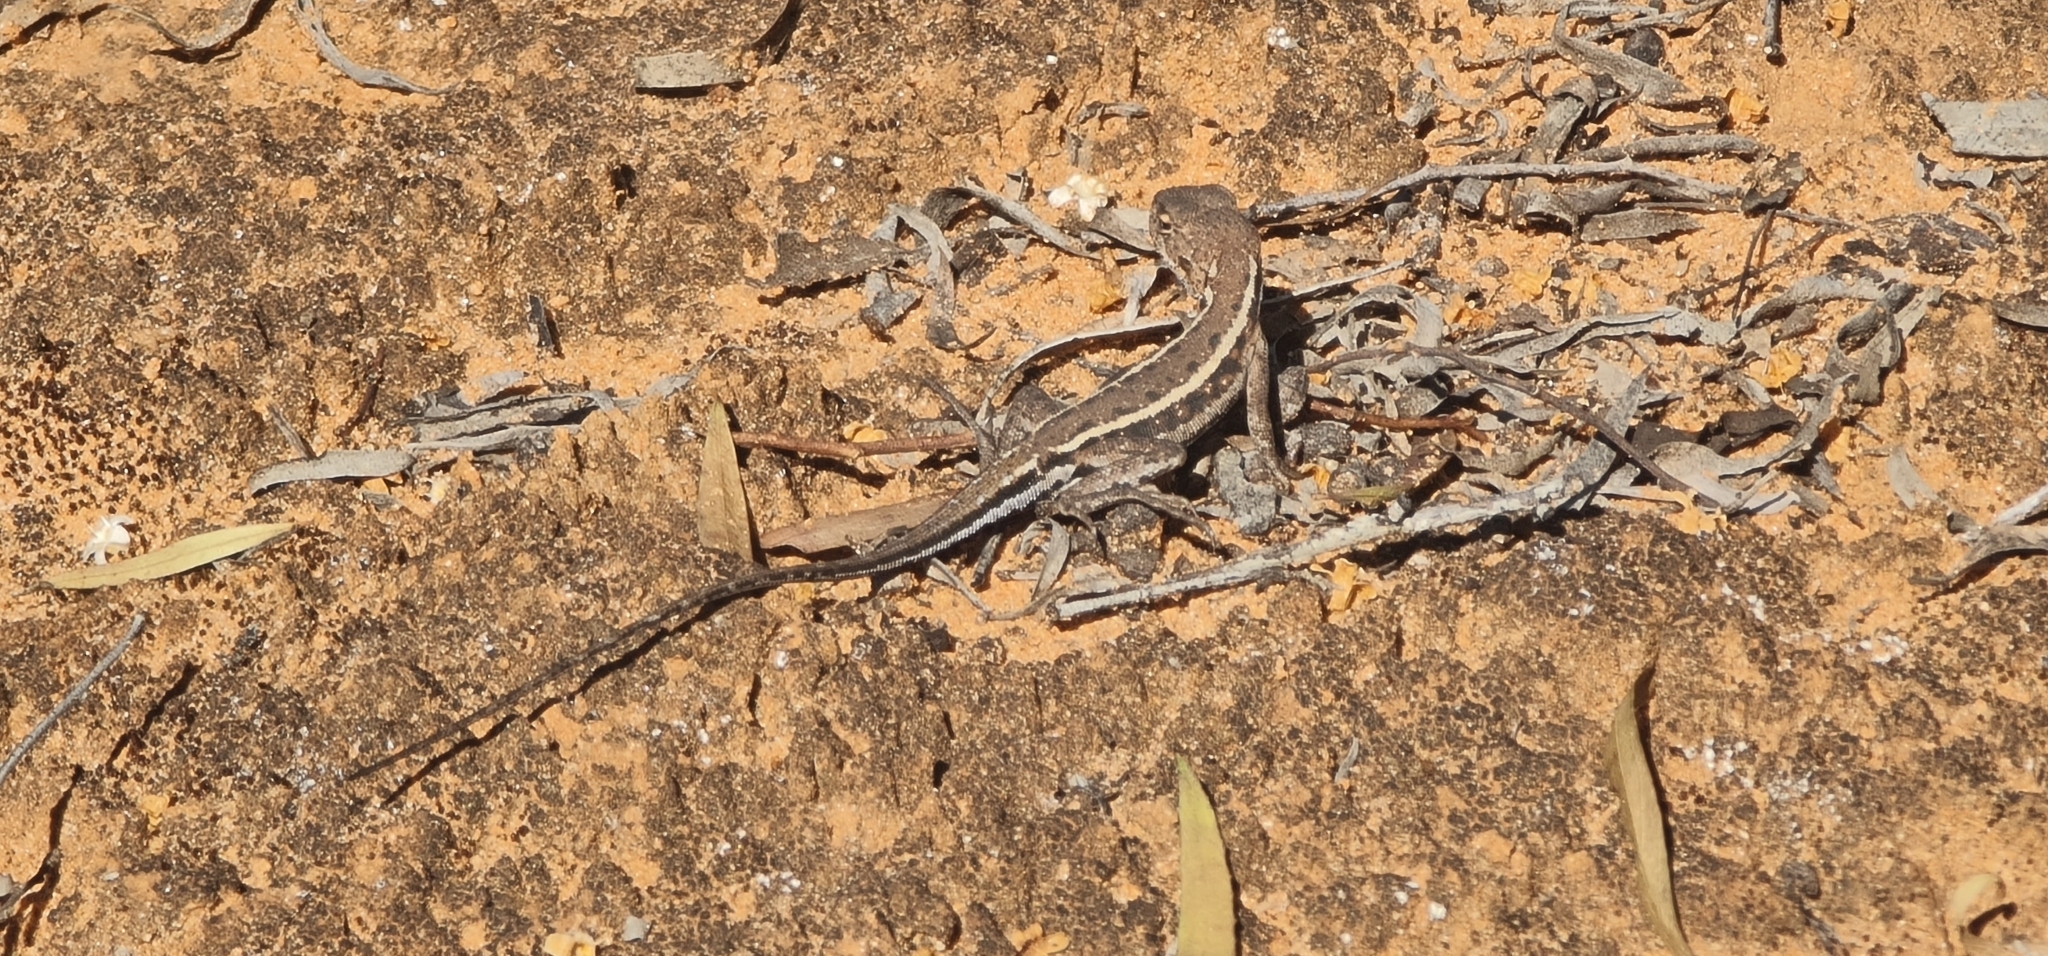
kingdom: Animalia
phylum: Chordata
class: Squamata
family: Agamidae
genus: Ctenophorus
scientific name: Ctenophorus spinodomus
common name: Eastern mallee dragon
